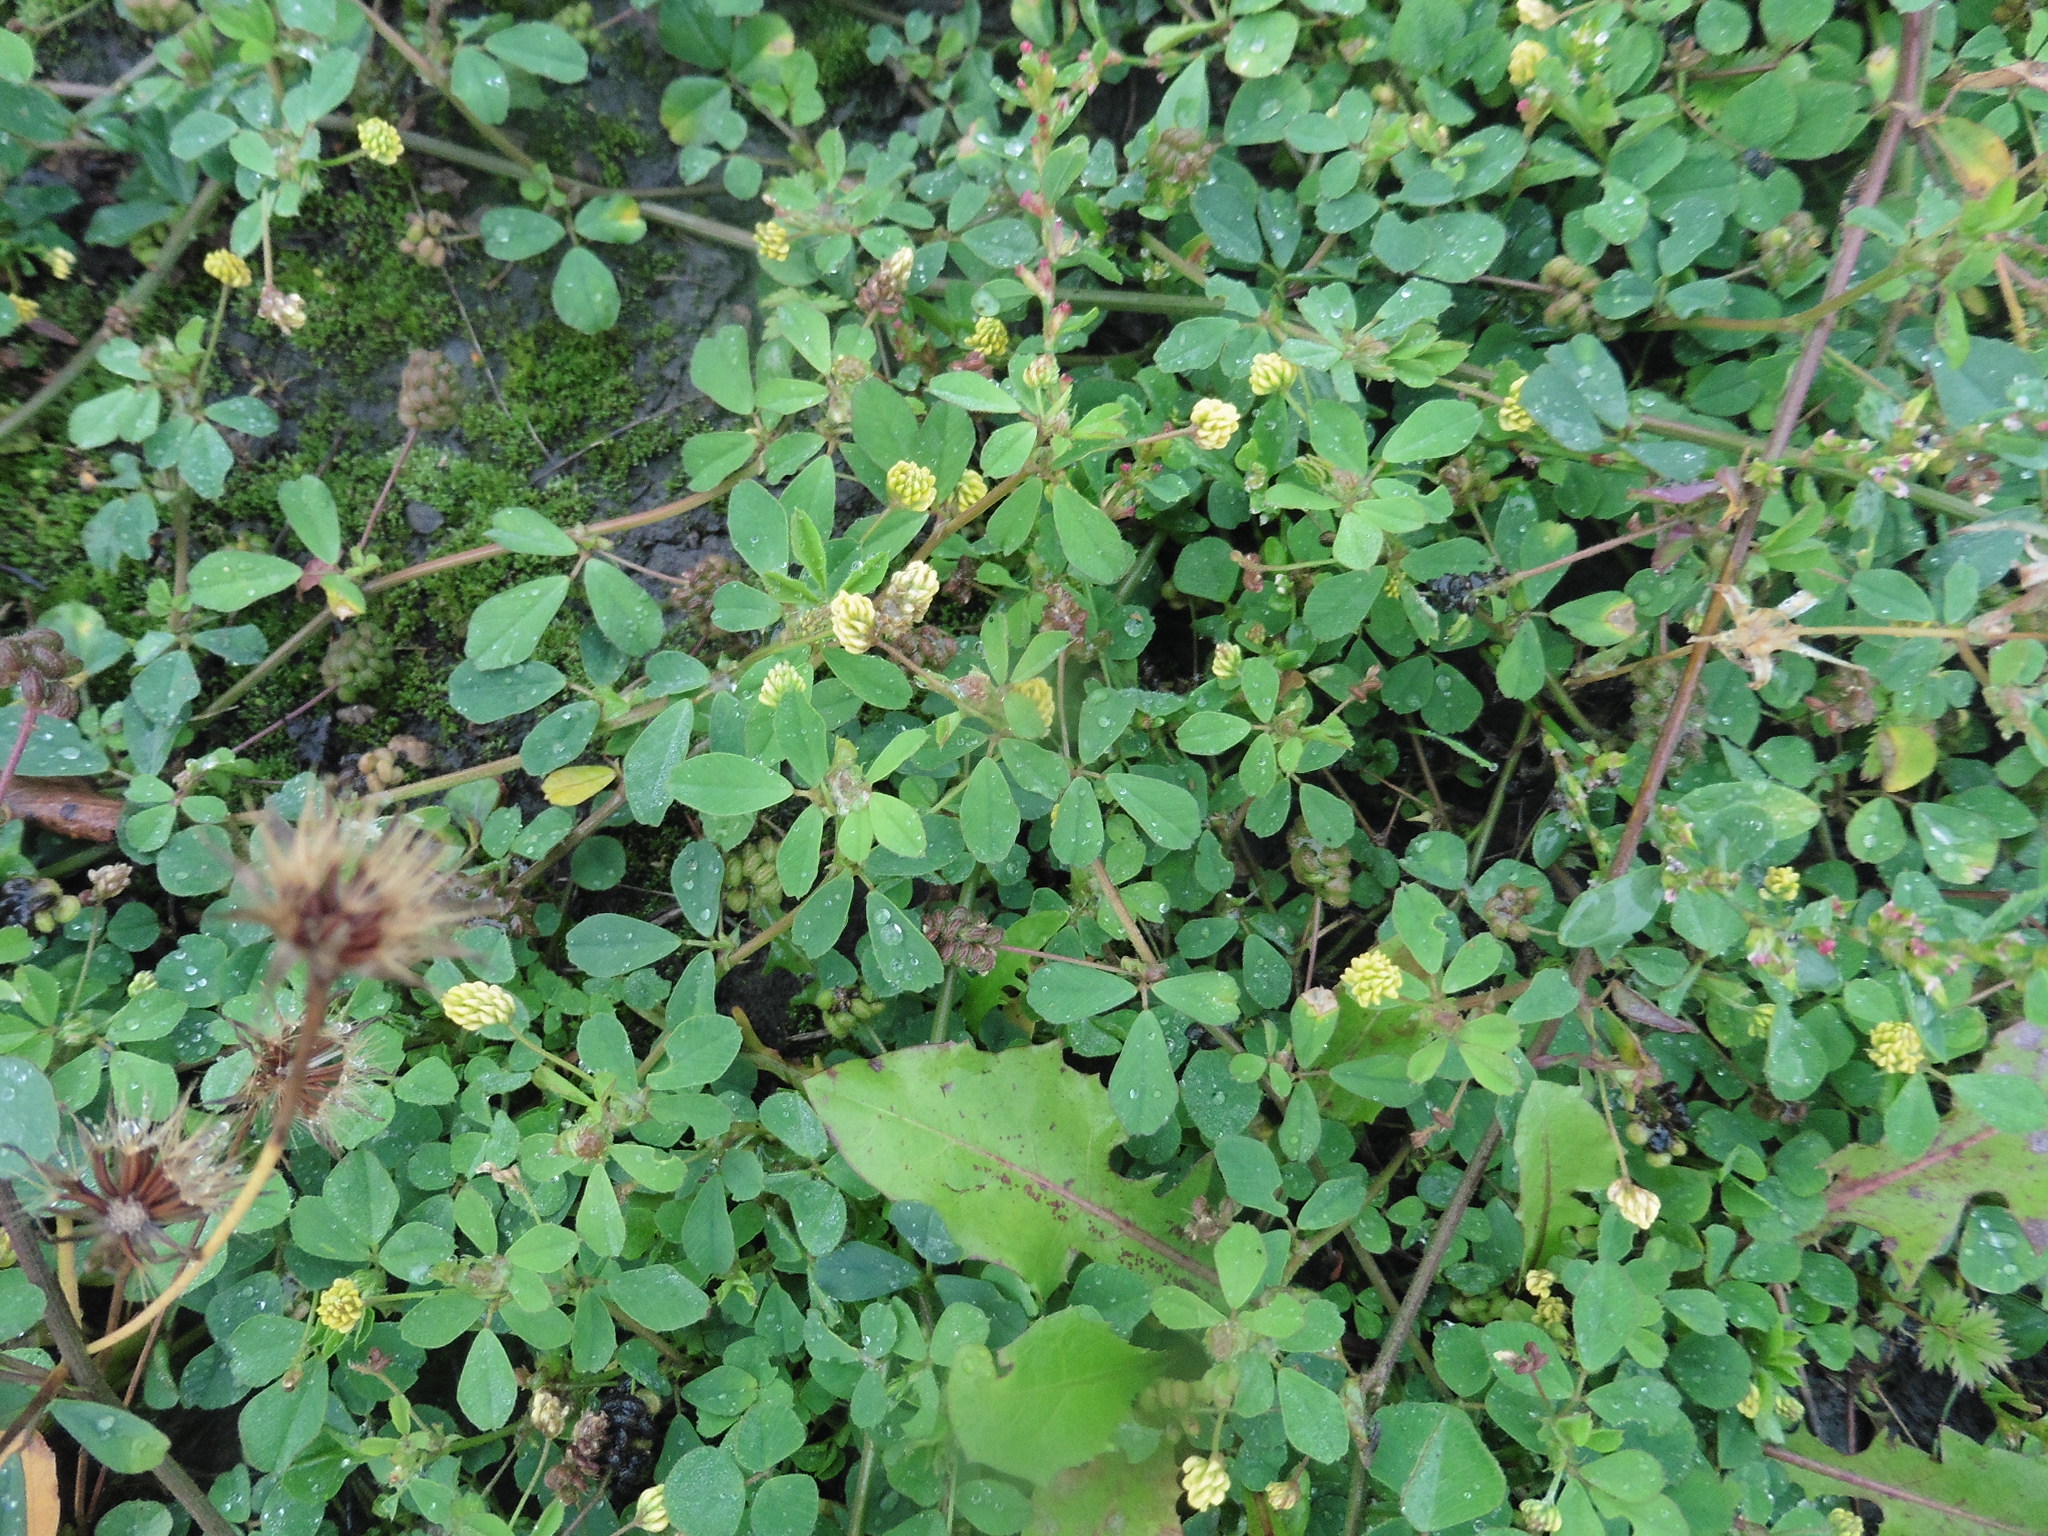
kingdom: Plantae
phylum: Tracheophyta
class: Magnoliopsida
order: Fabales
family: Fabaceae
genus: Medicago
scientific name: Medicago lupulina
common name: Black medick
